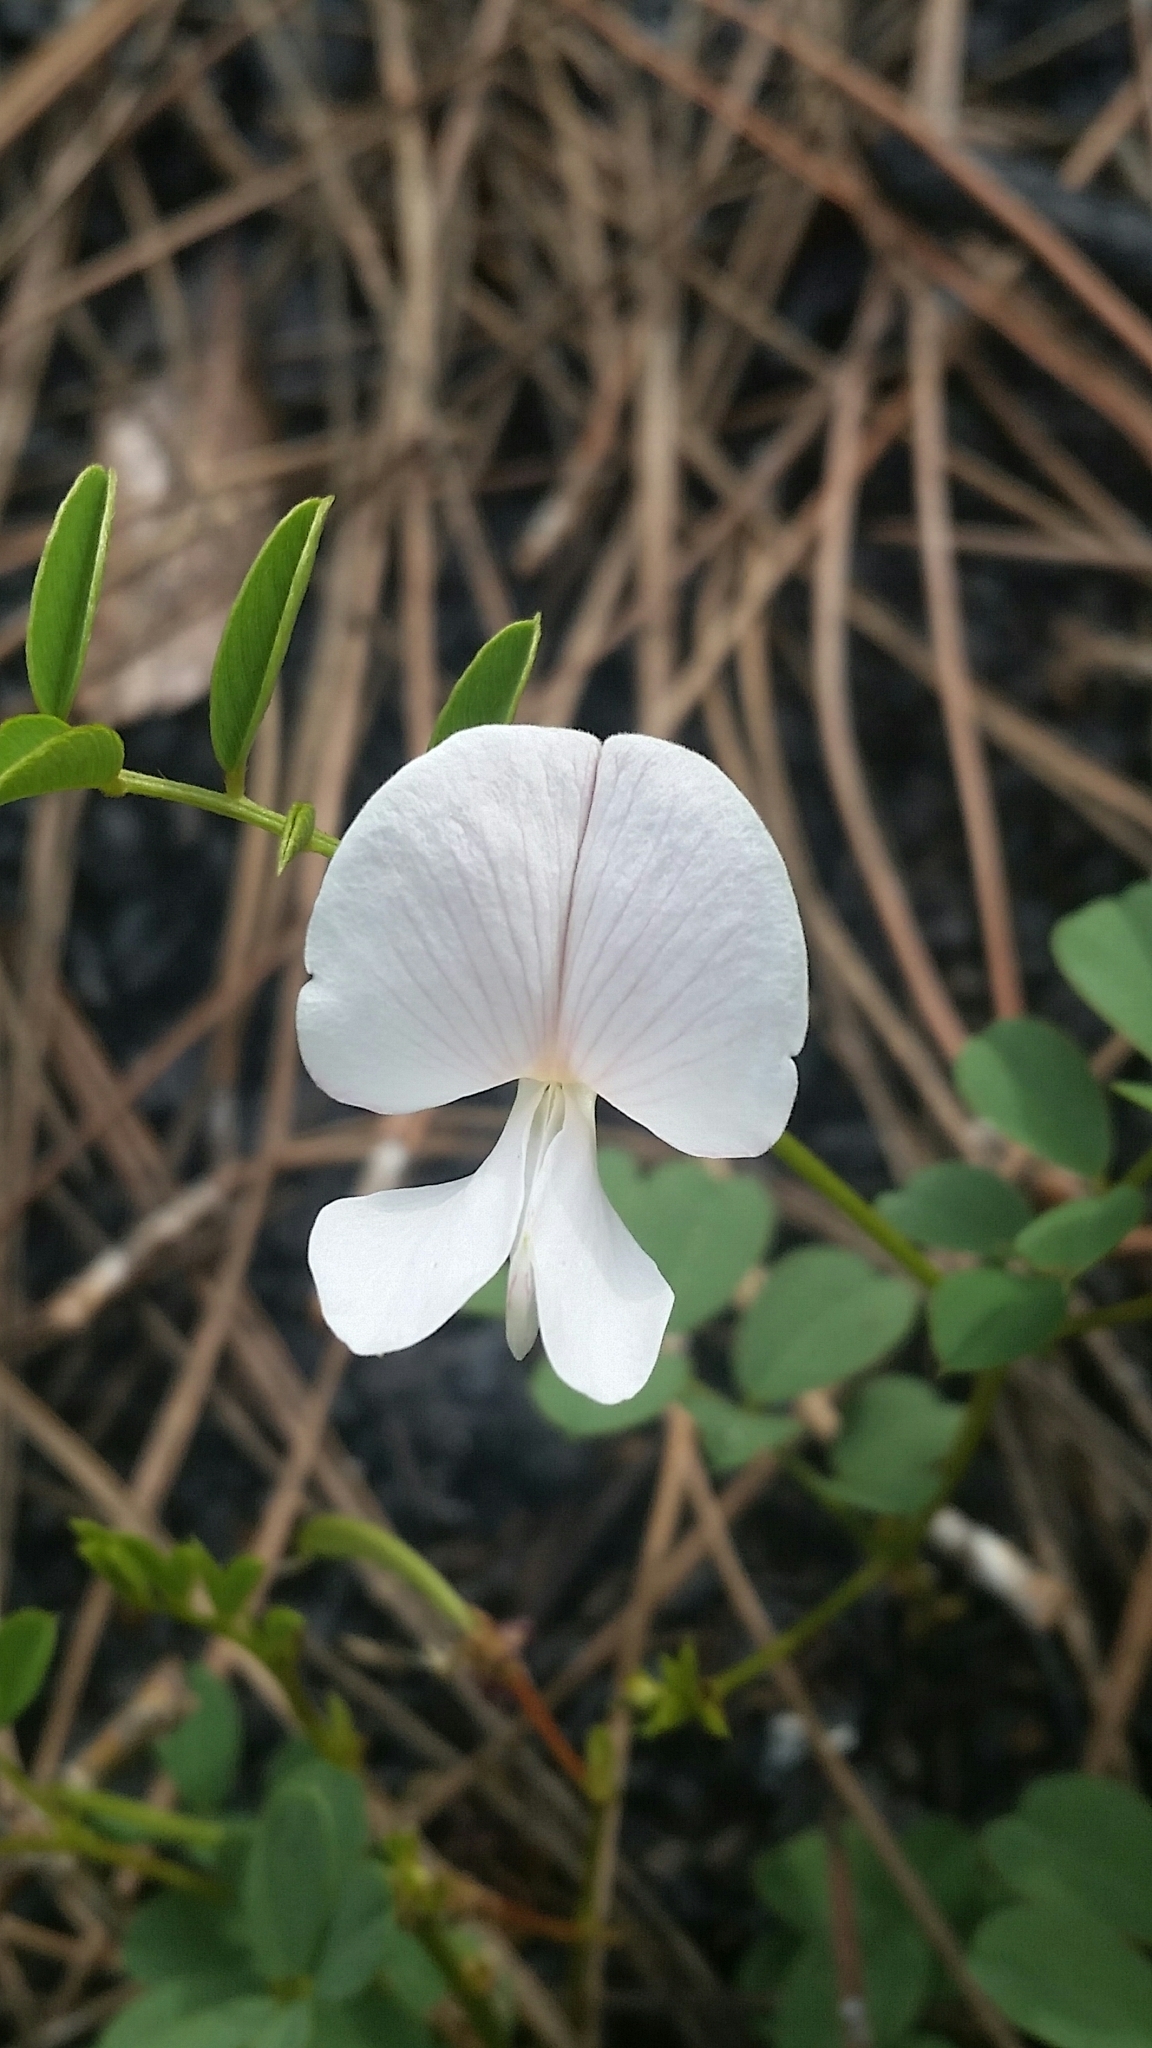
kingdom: Plantae
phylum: Tracheophyta
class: Magnoliopsida
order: Fabales
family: Fabaceae
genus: Tephrosia
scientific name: Tephrosia rugelii
